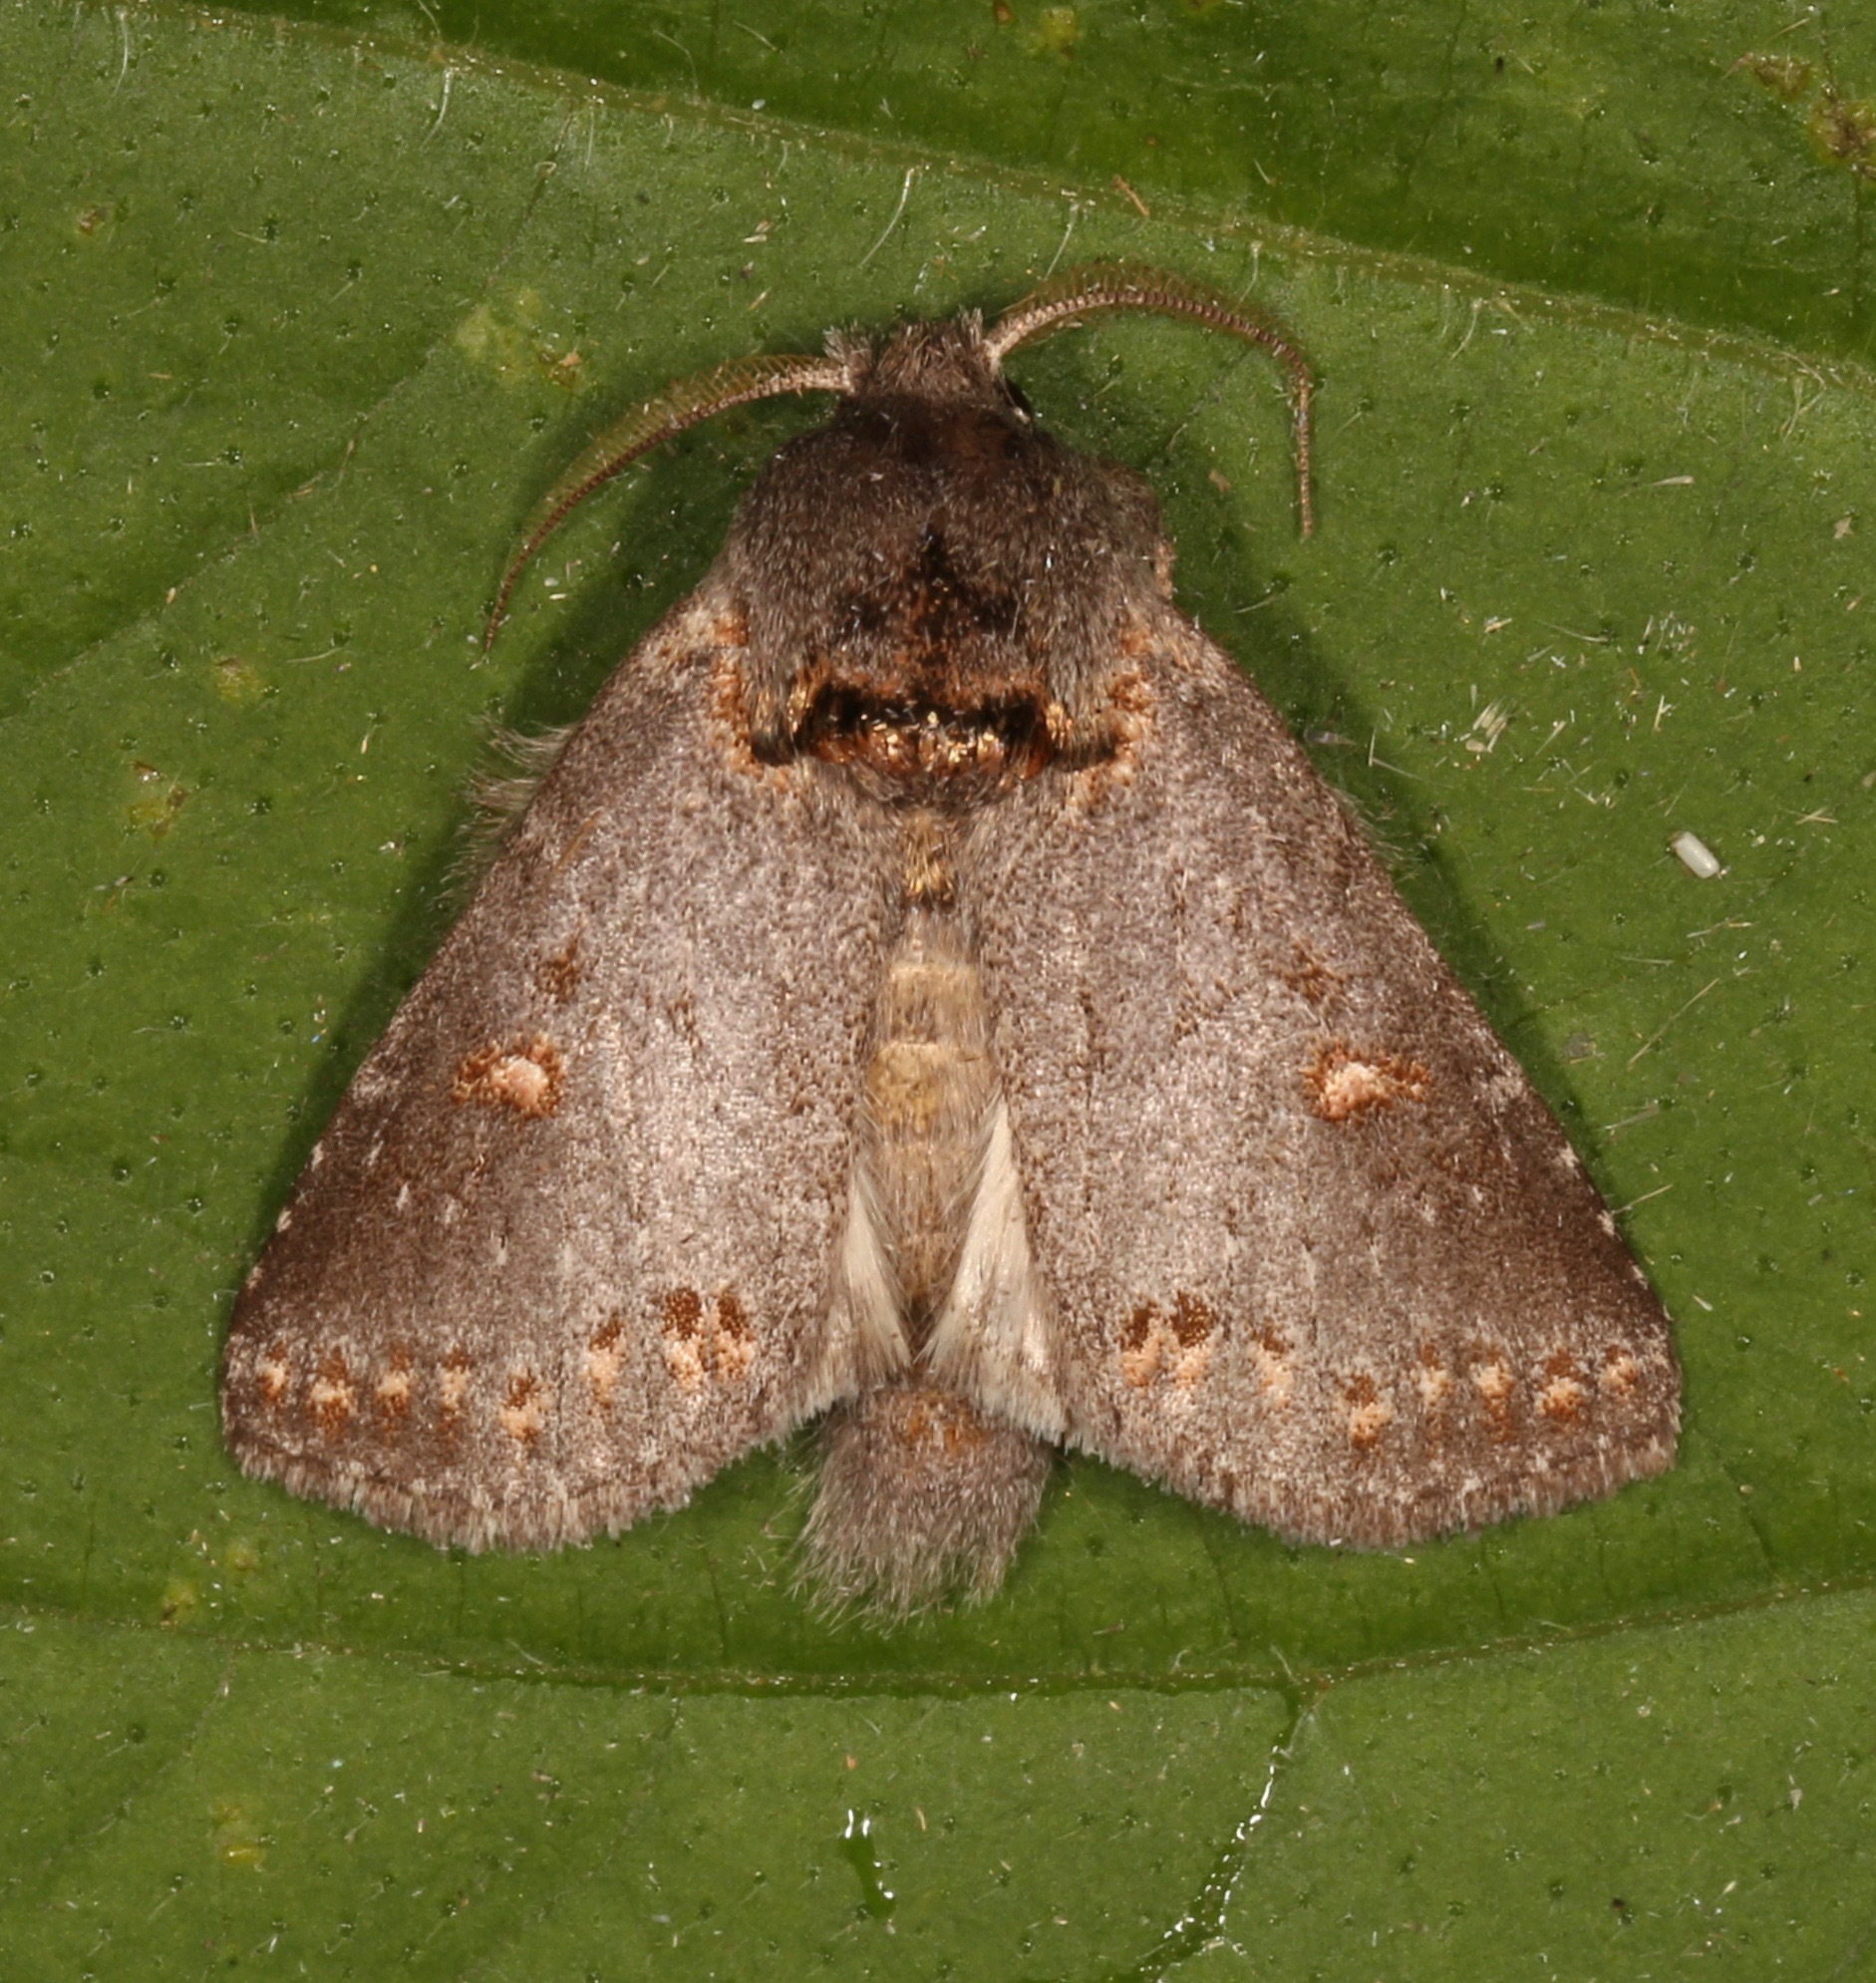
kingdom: Animalia
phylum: Arthropoda
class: Insecta
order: Lepidoptera
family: Notodontidae
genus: Theroa
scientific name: Theroa zethus
